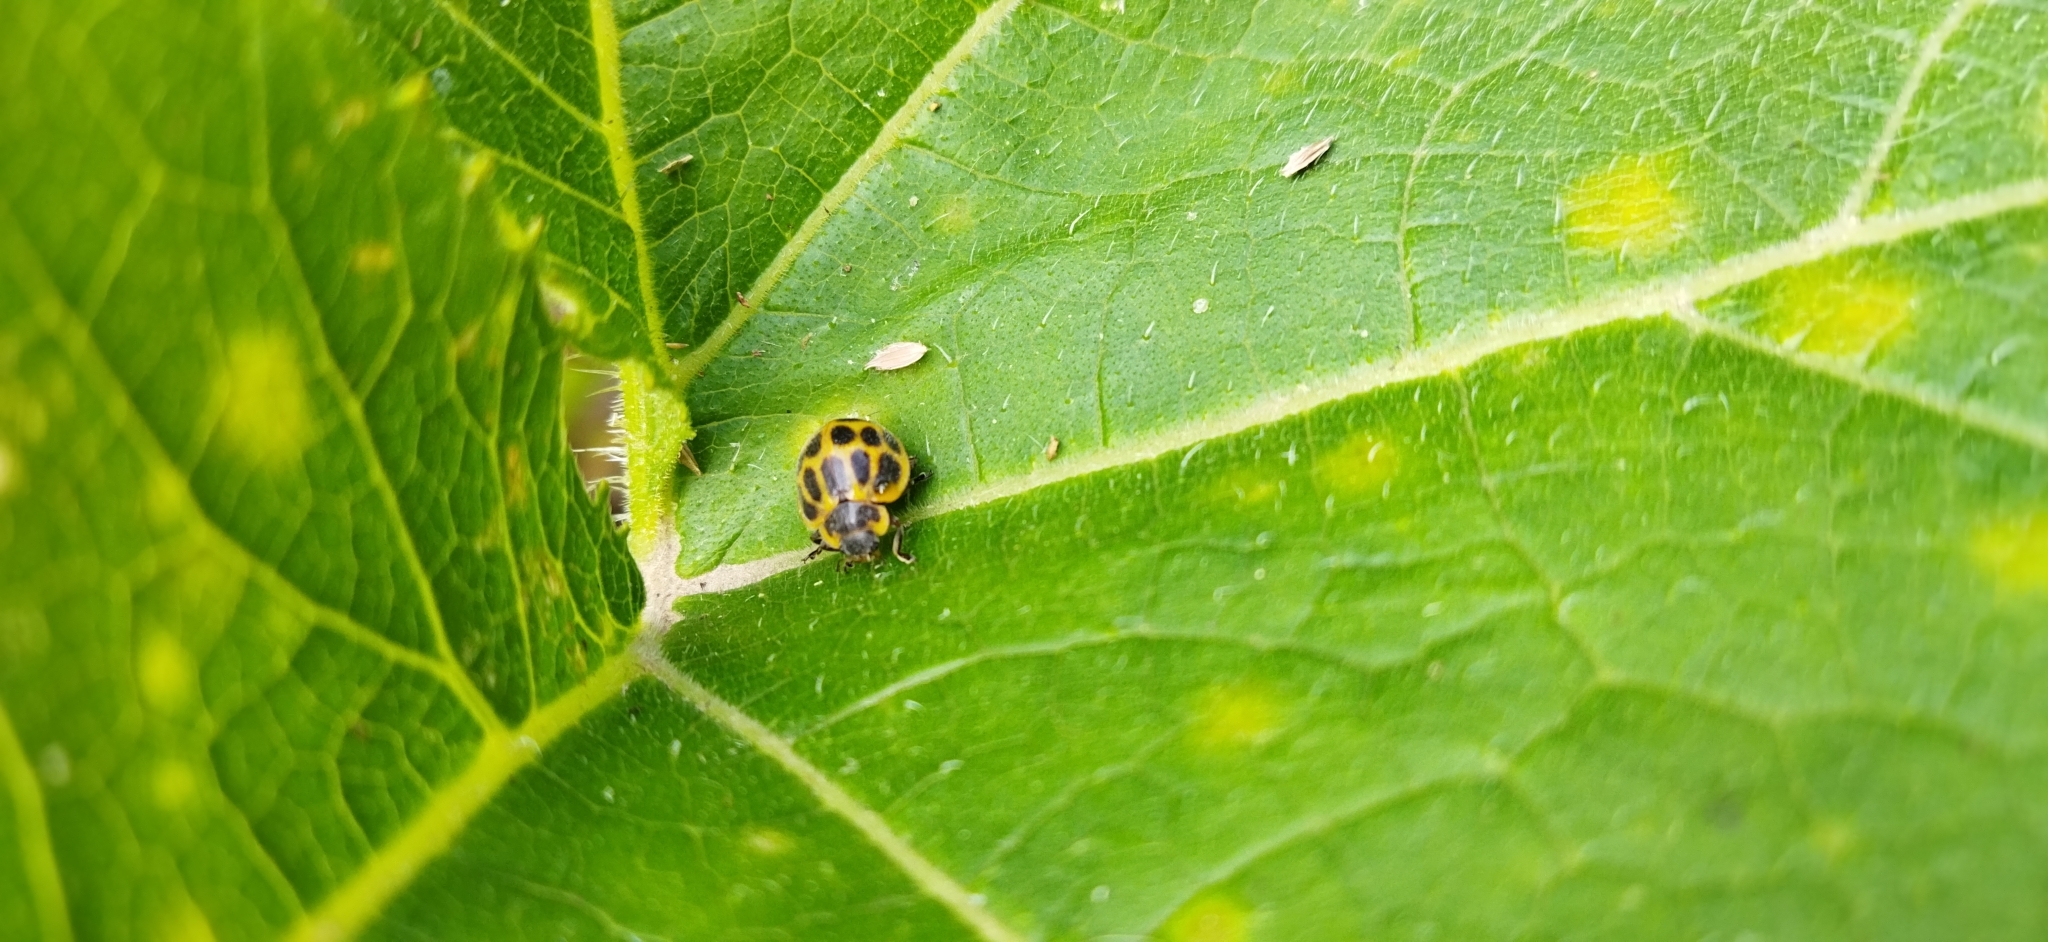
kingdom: Animalia
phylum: Arthropoda
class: Insecta
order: Coleoptera
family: Coccinellidae
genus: Epilachna
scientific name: Epilachna
